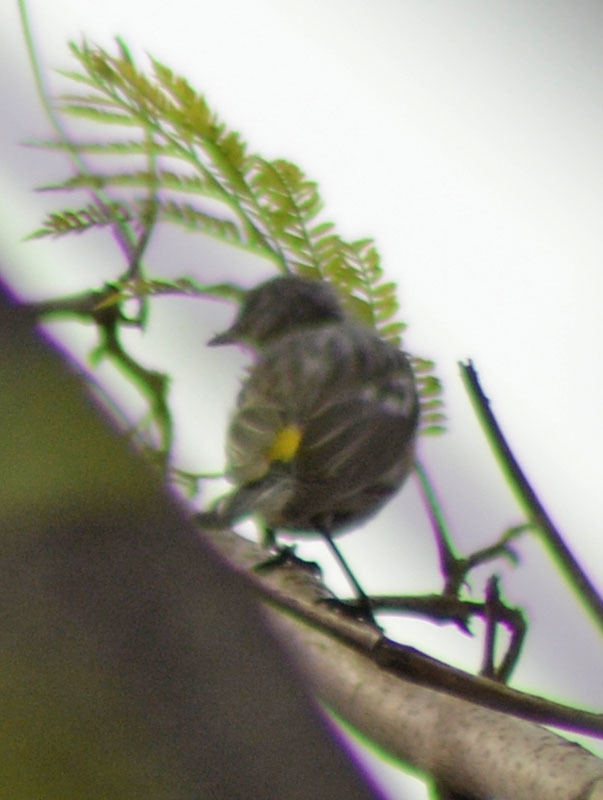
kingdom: Animalia
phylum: Chordata
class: Aves
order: Passeriformes
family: Parulidae
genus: Setophaga
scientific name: Setophaga coronata
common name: Myrtle warbler
